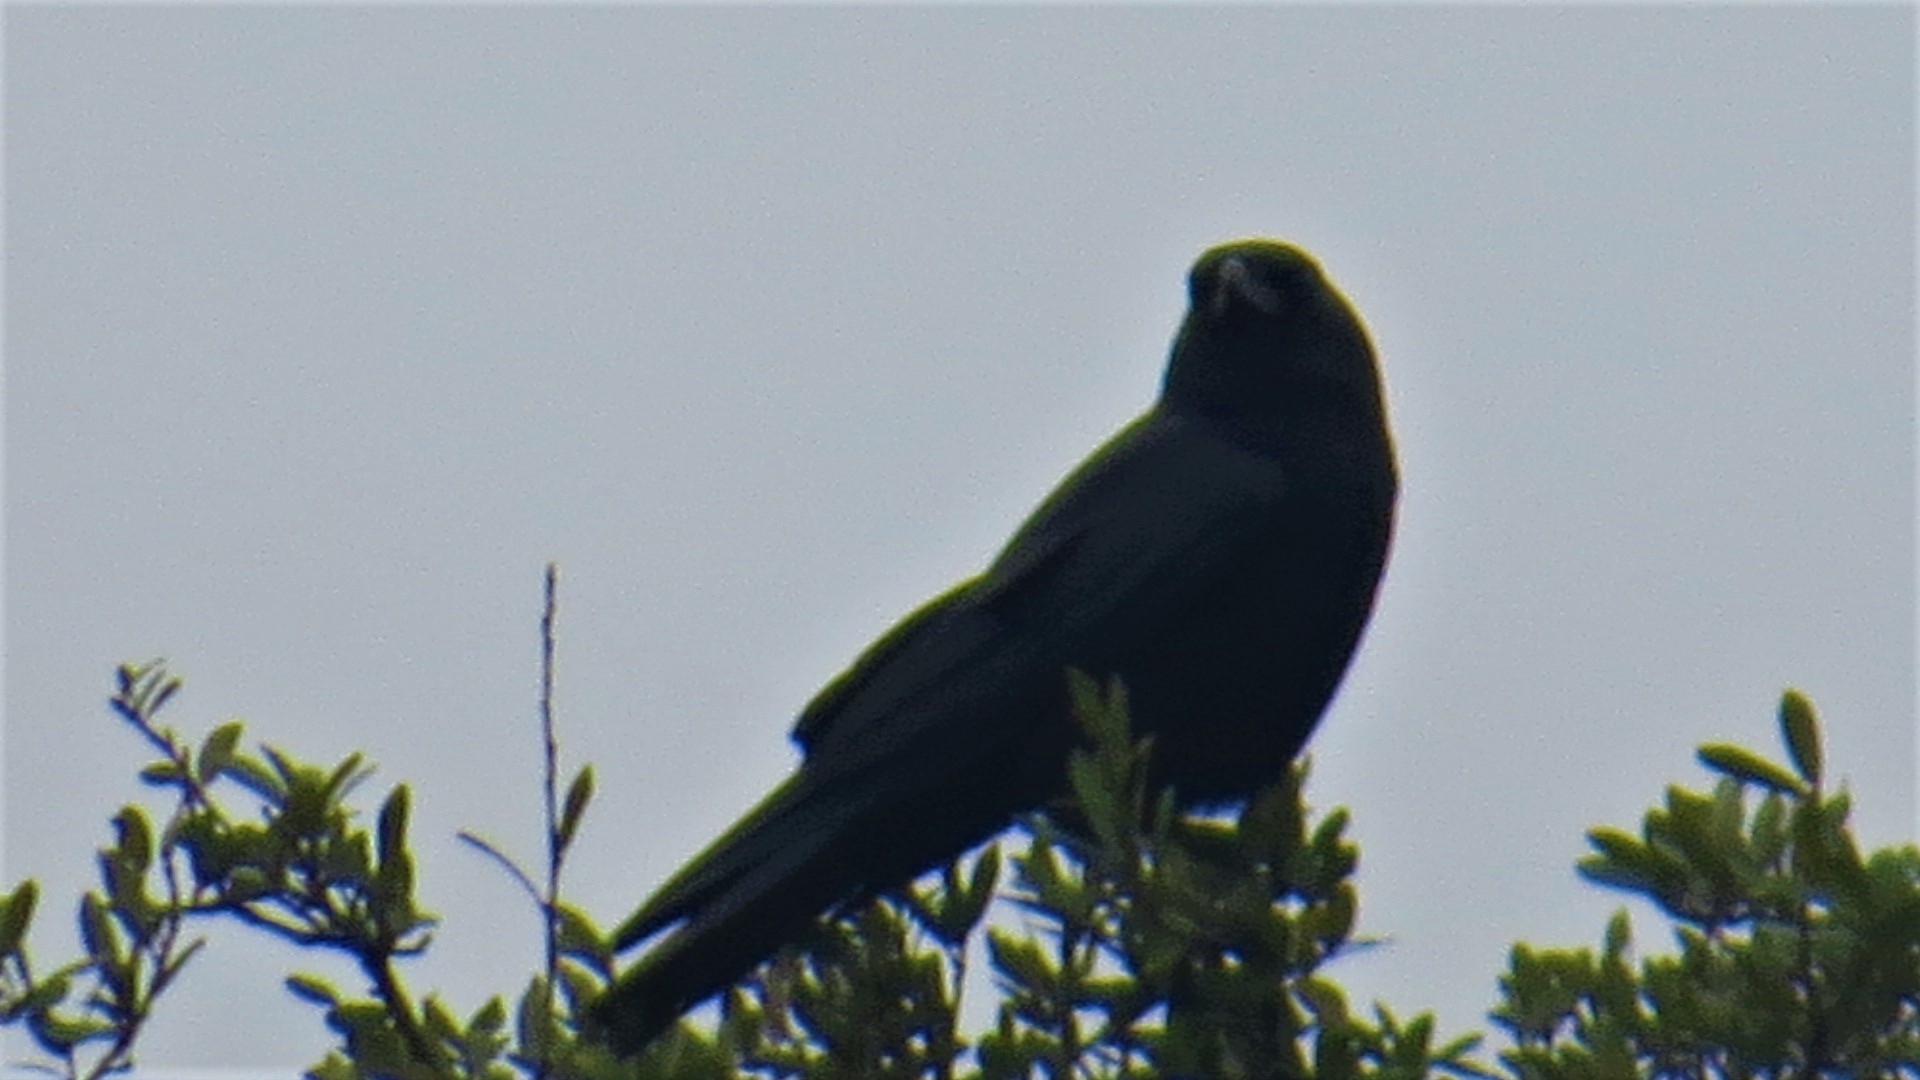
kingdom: Animalia
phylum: Chordata
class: Aves
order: Passeriformes
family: Corvidae
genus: Corvus
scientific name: Corvus brachyrhynchos
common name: American crow
